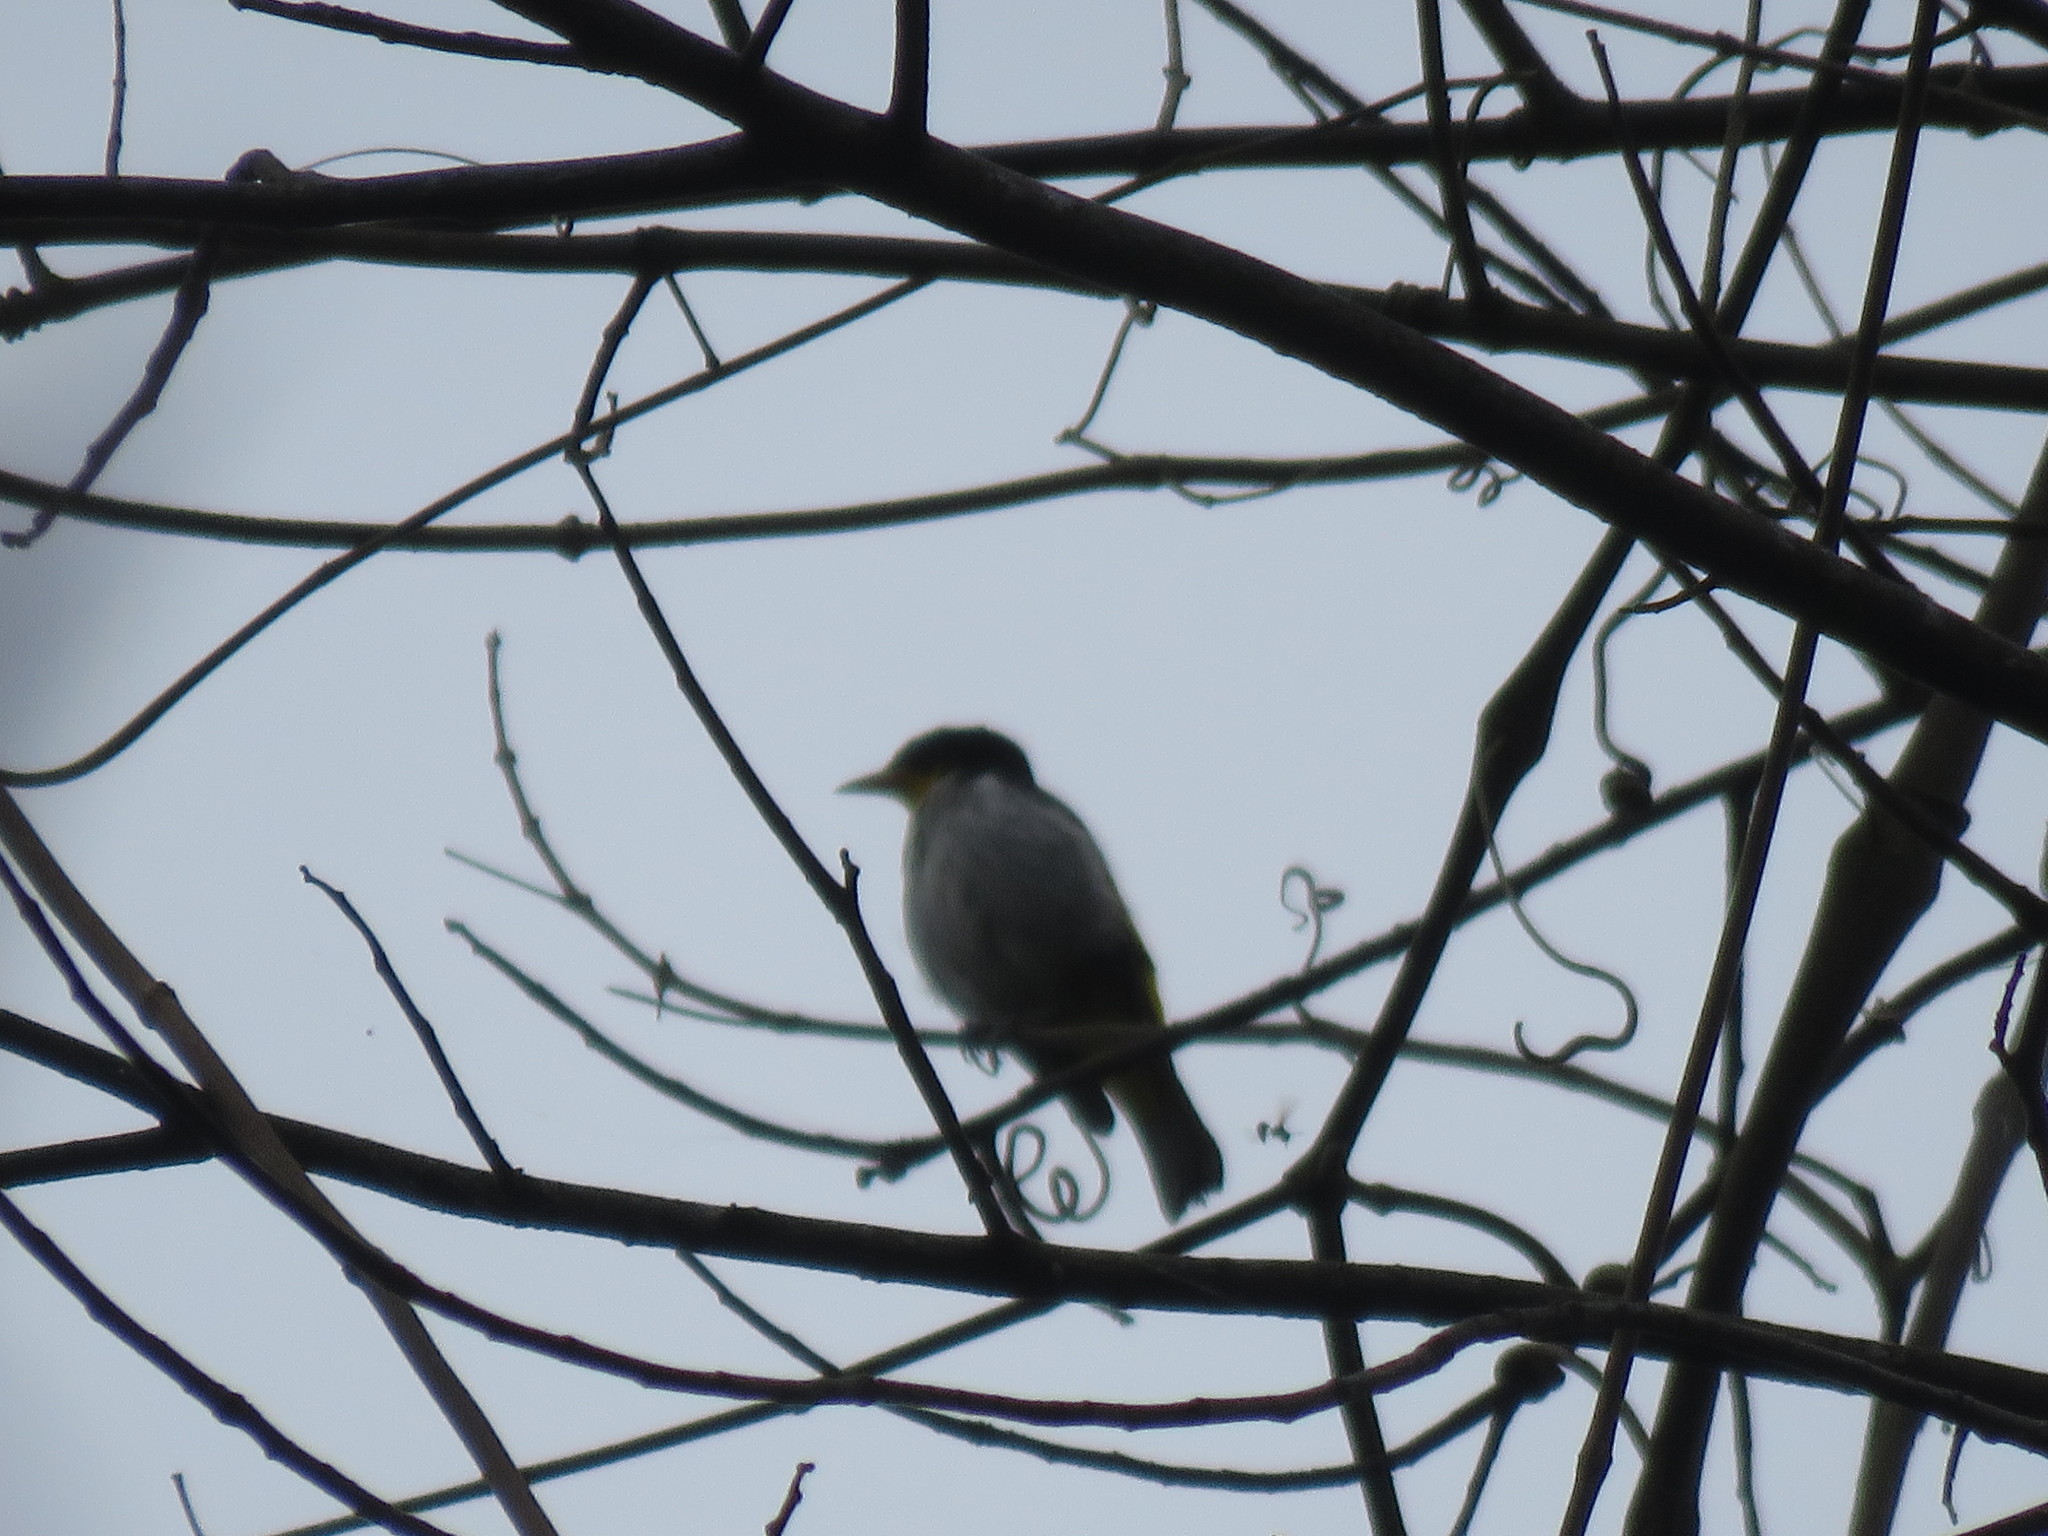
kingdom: Animalia
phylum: Chordata
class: Aves
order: Passeriformes
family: Thraupidae
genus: Hemithraupis
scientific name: Hemithraupis flavicollis
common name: Yellow-backed tanager
